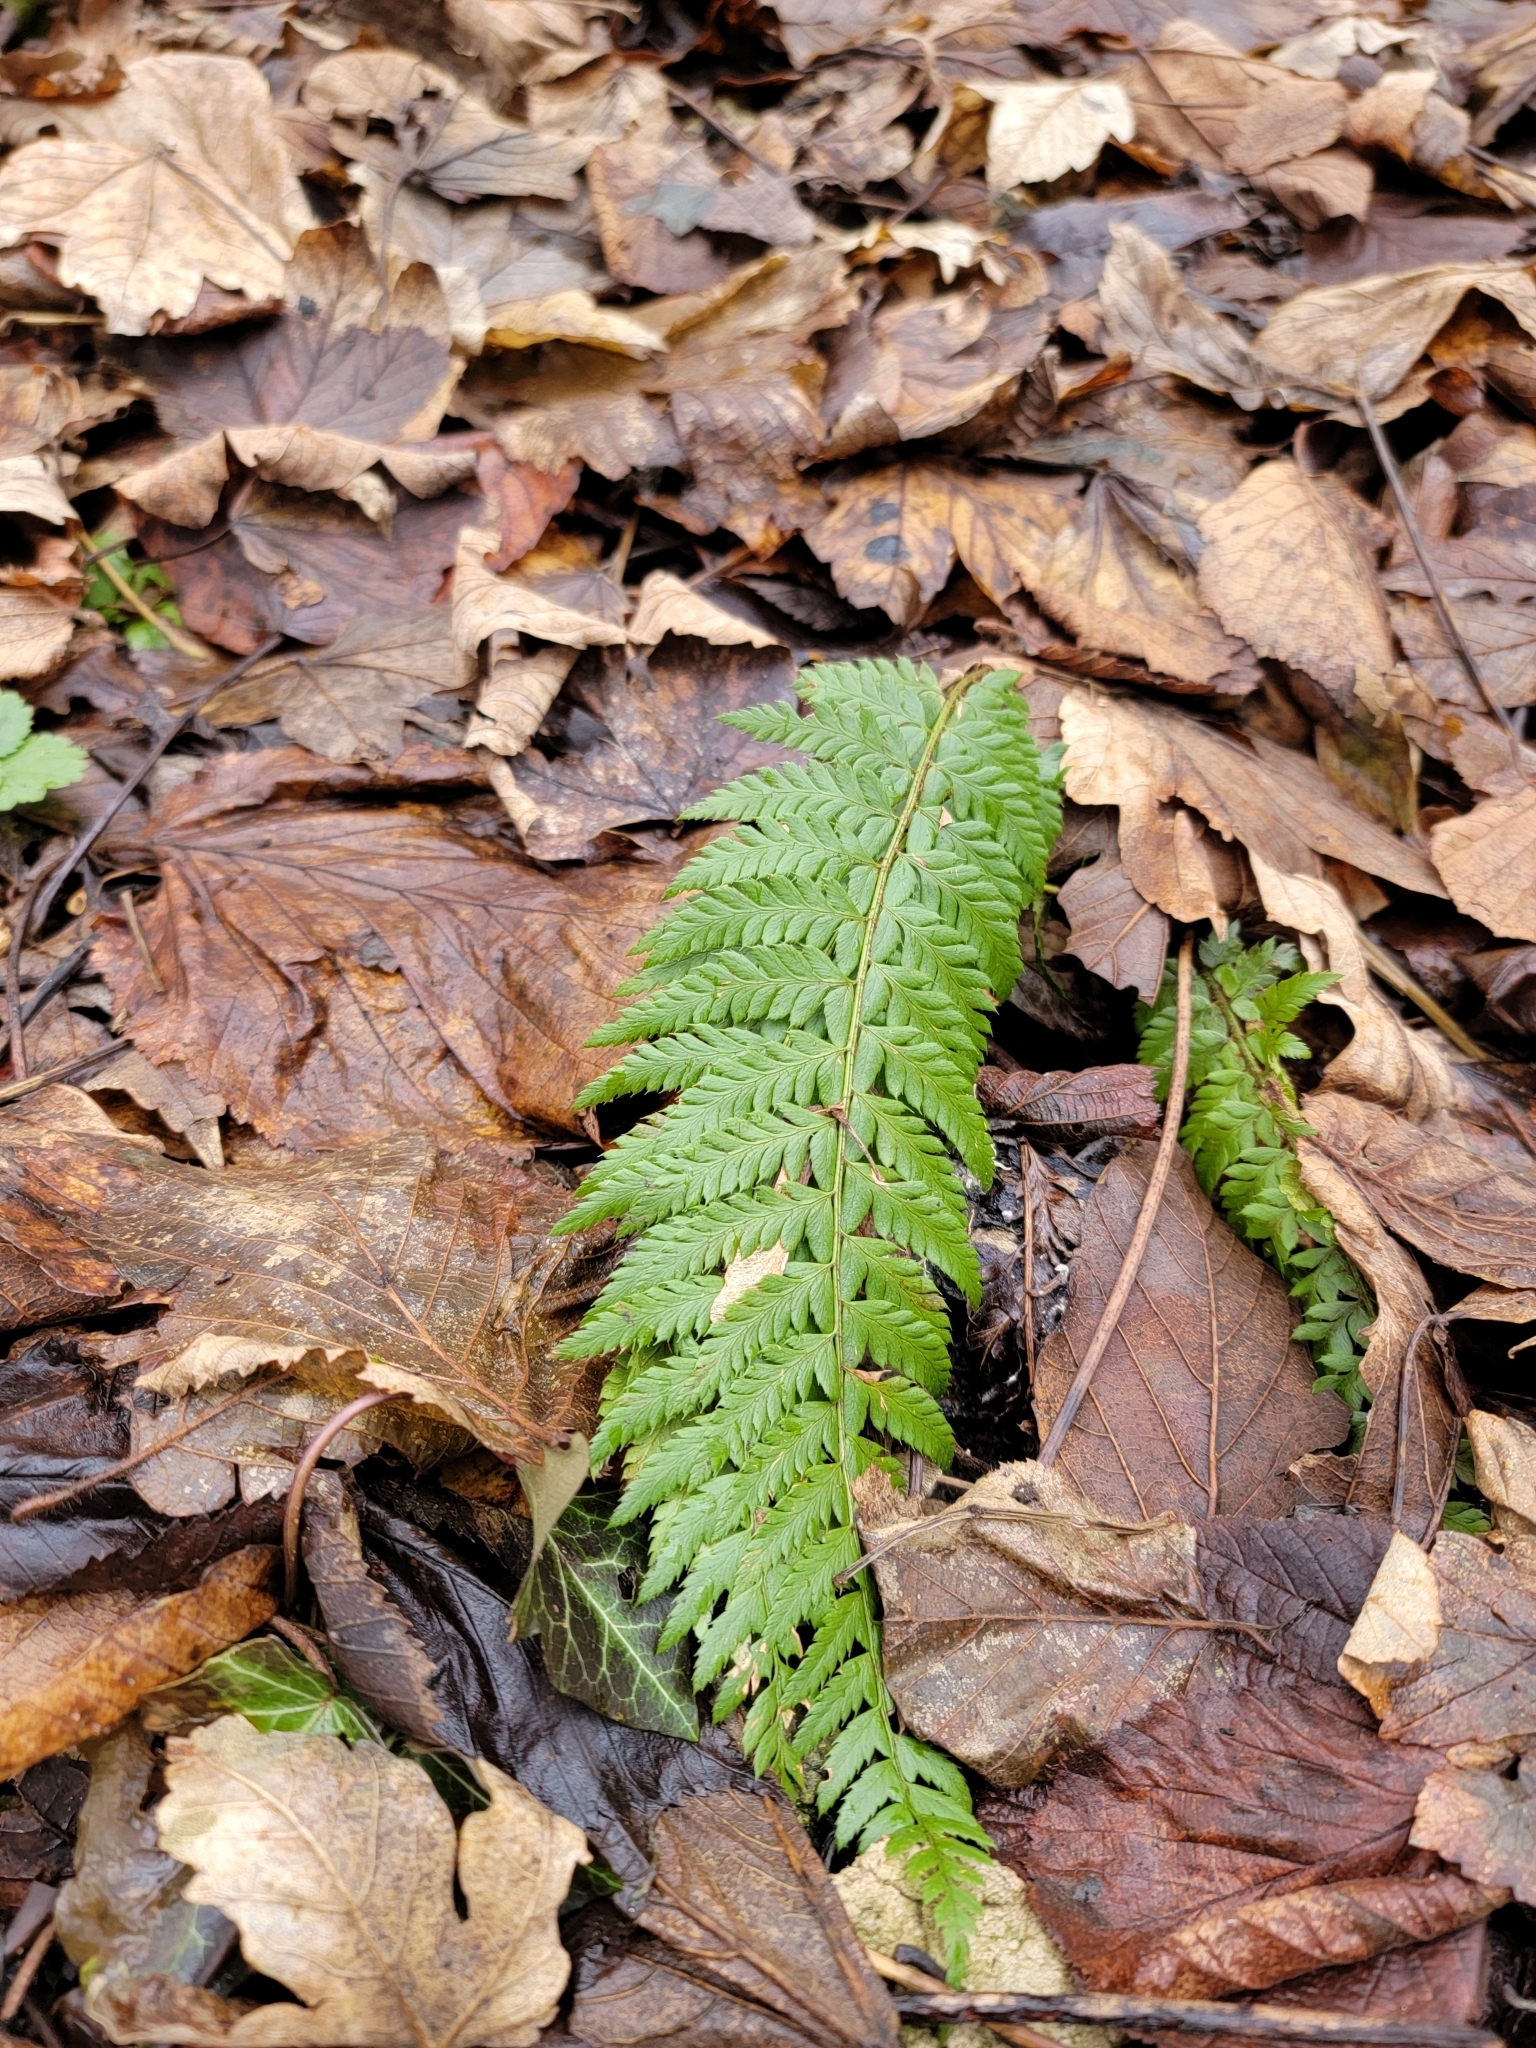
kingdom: Plantae
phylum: Tracheophyta
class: Polypodiopsida
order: Polypodiales
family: Dryopteridaceae
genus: Polystichum
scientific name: Polystichum aculeatum
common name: Hard shield-fern
